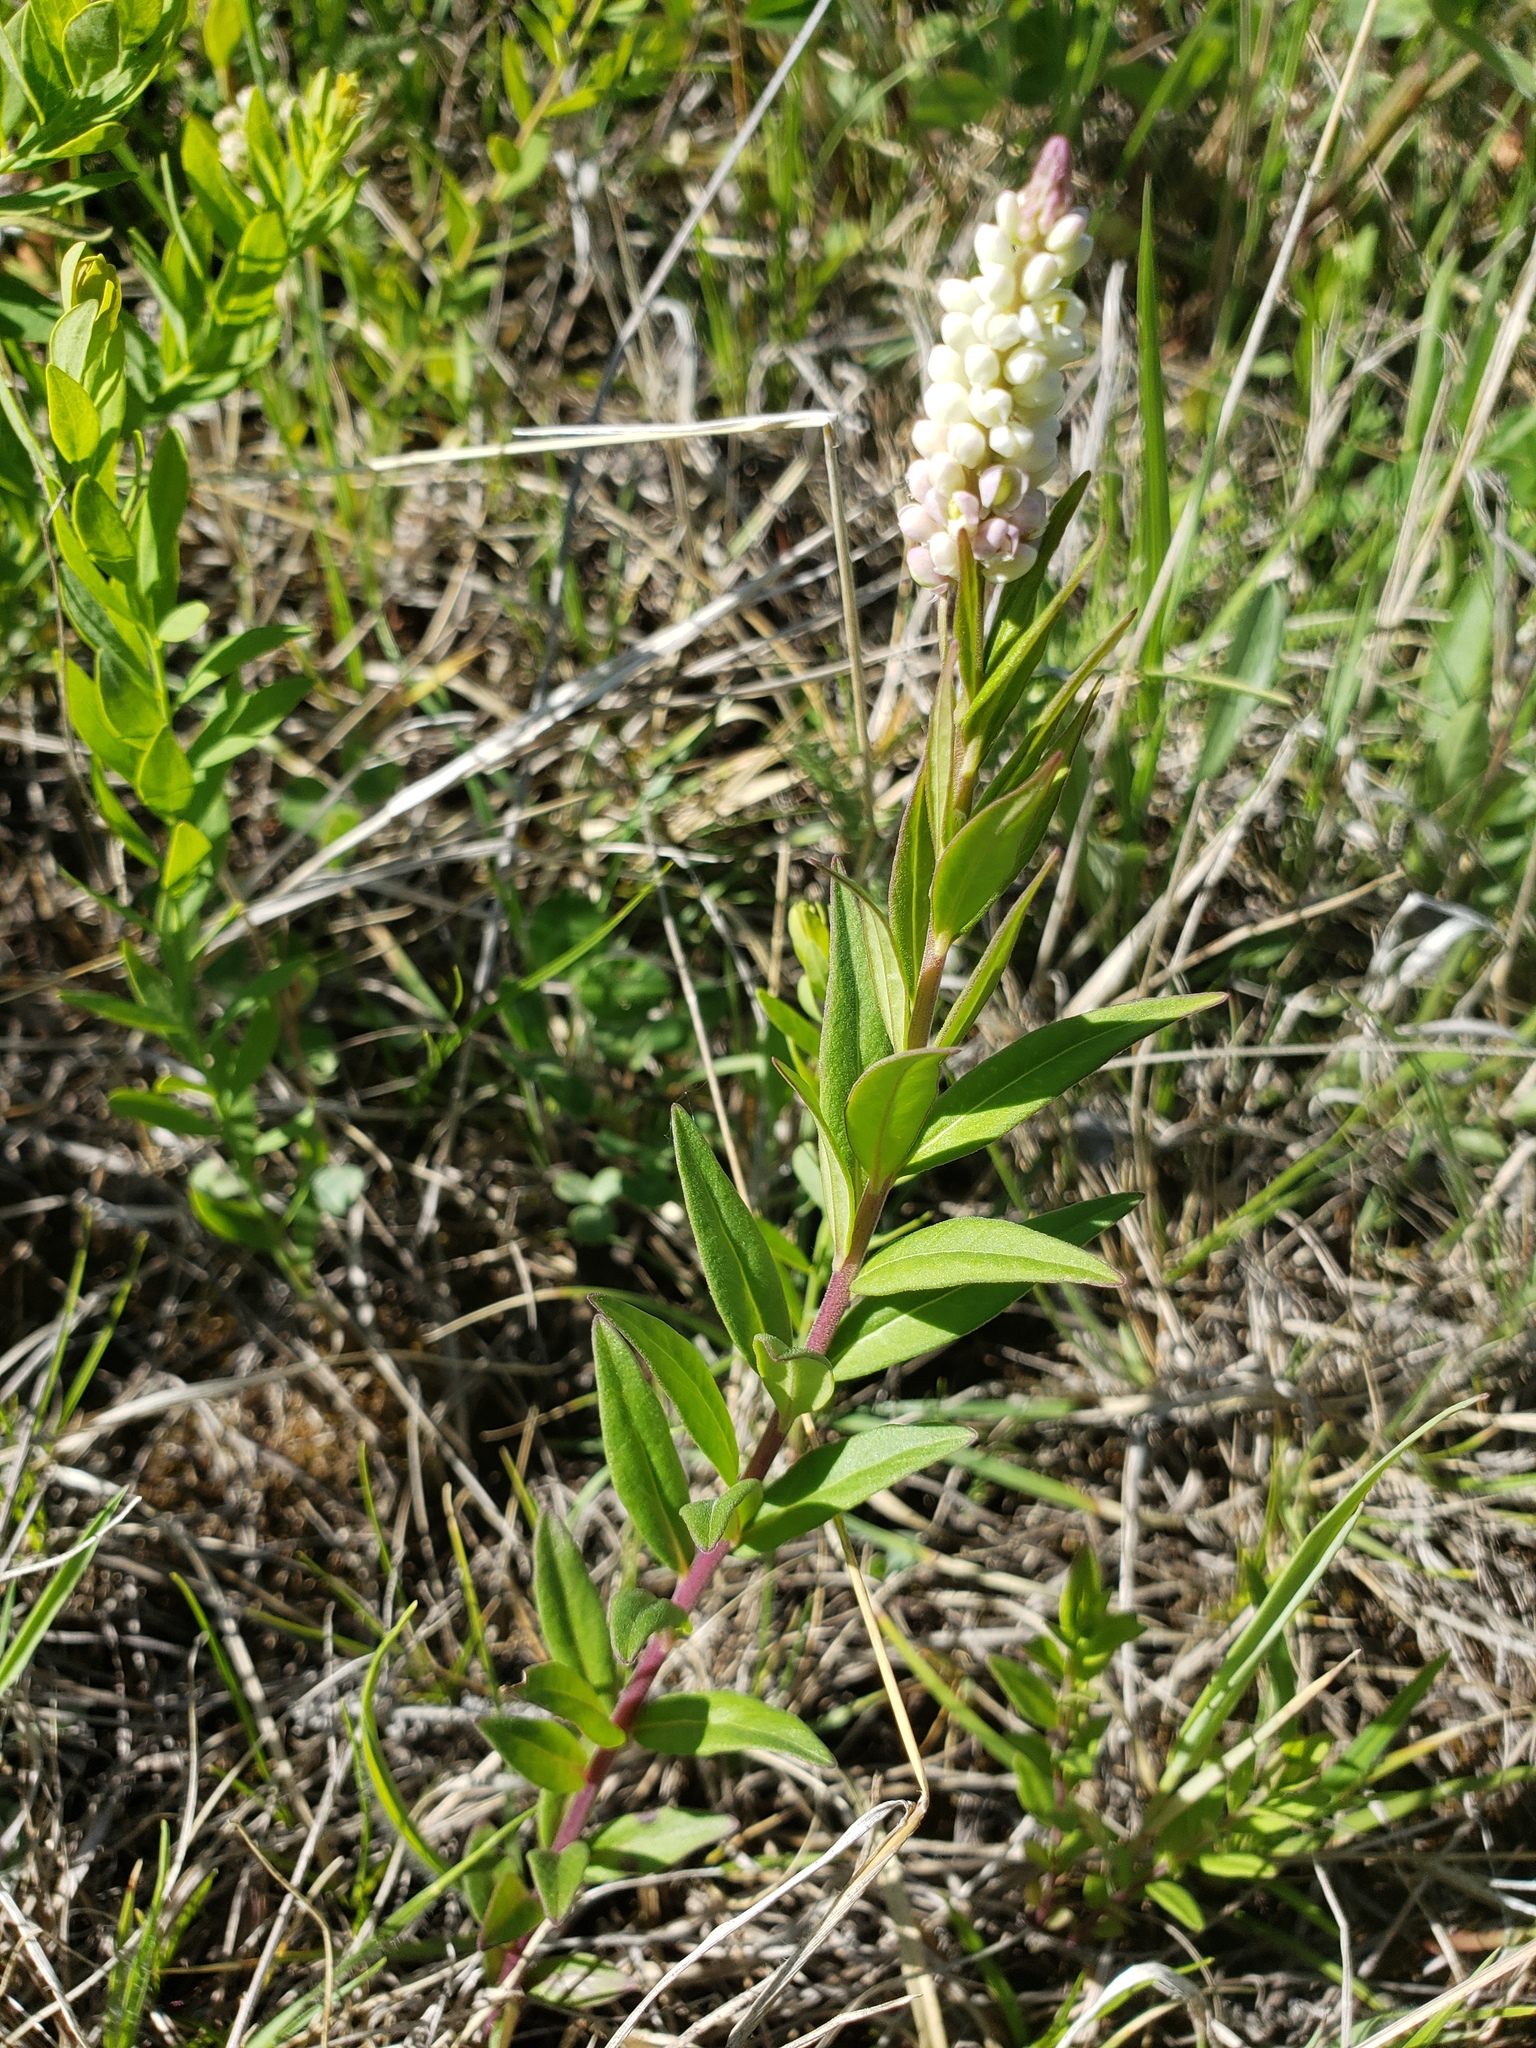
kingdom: Plantae
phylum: Tracheophyta
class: Magnoliopsida
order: Fabales
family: Polygalaceae
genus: Polygala
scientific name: Polygala senega
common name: Seneca snakeroot
